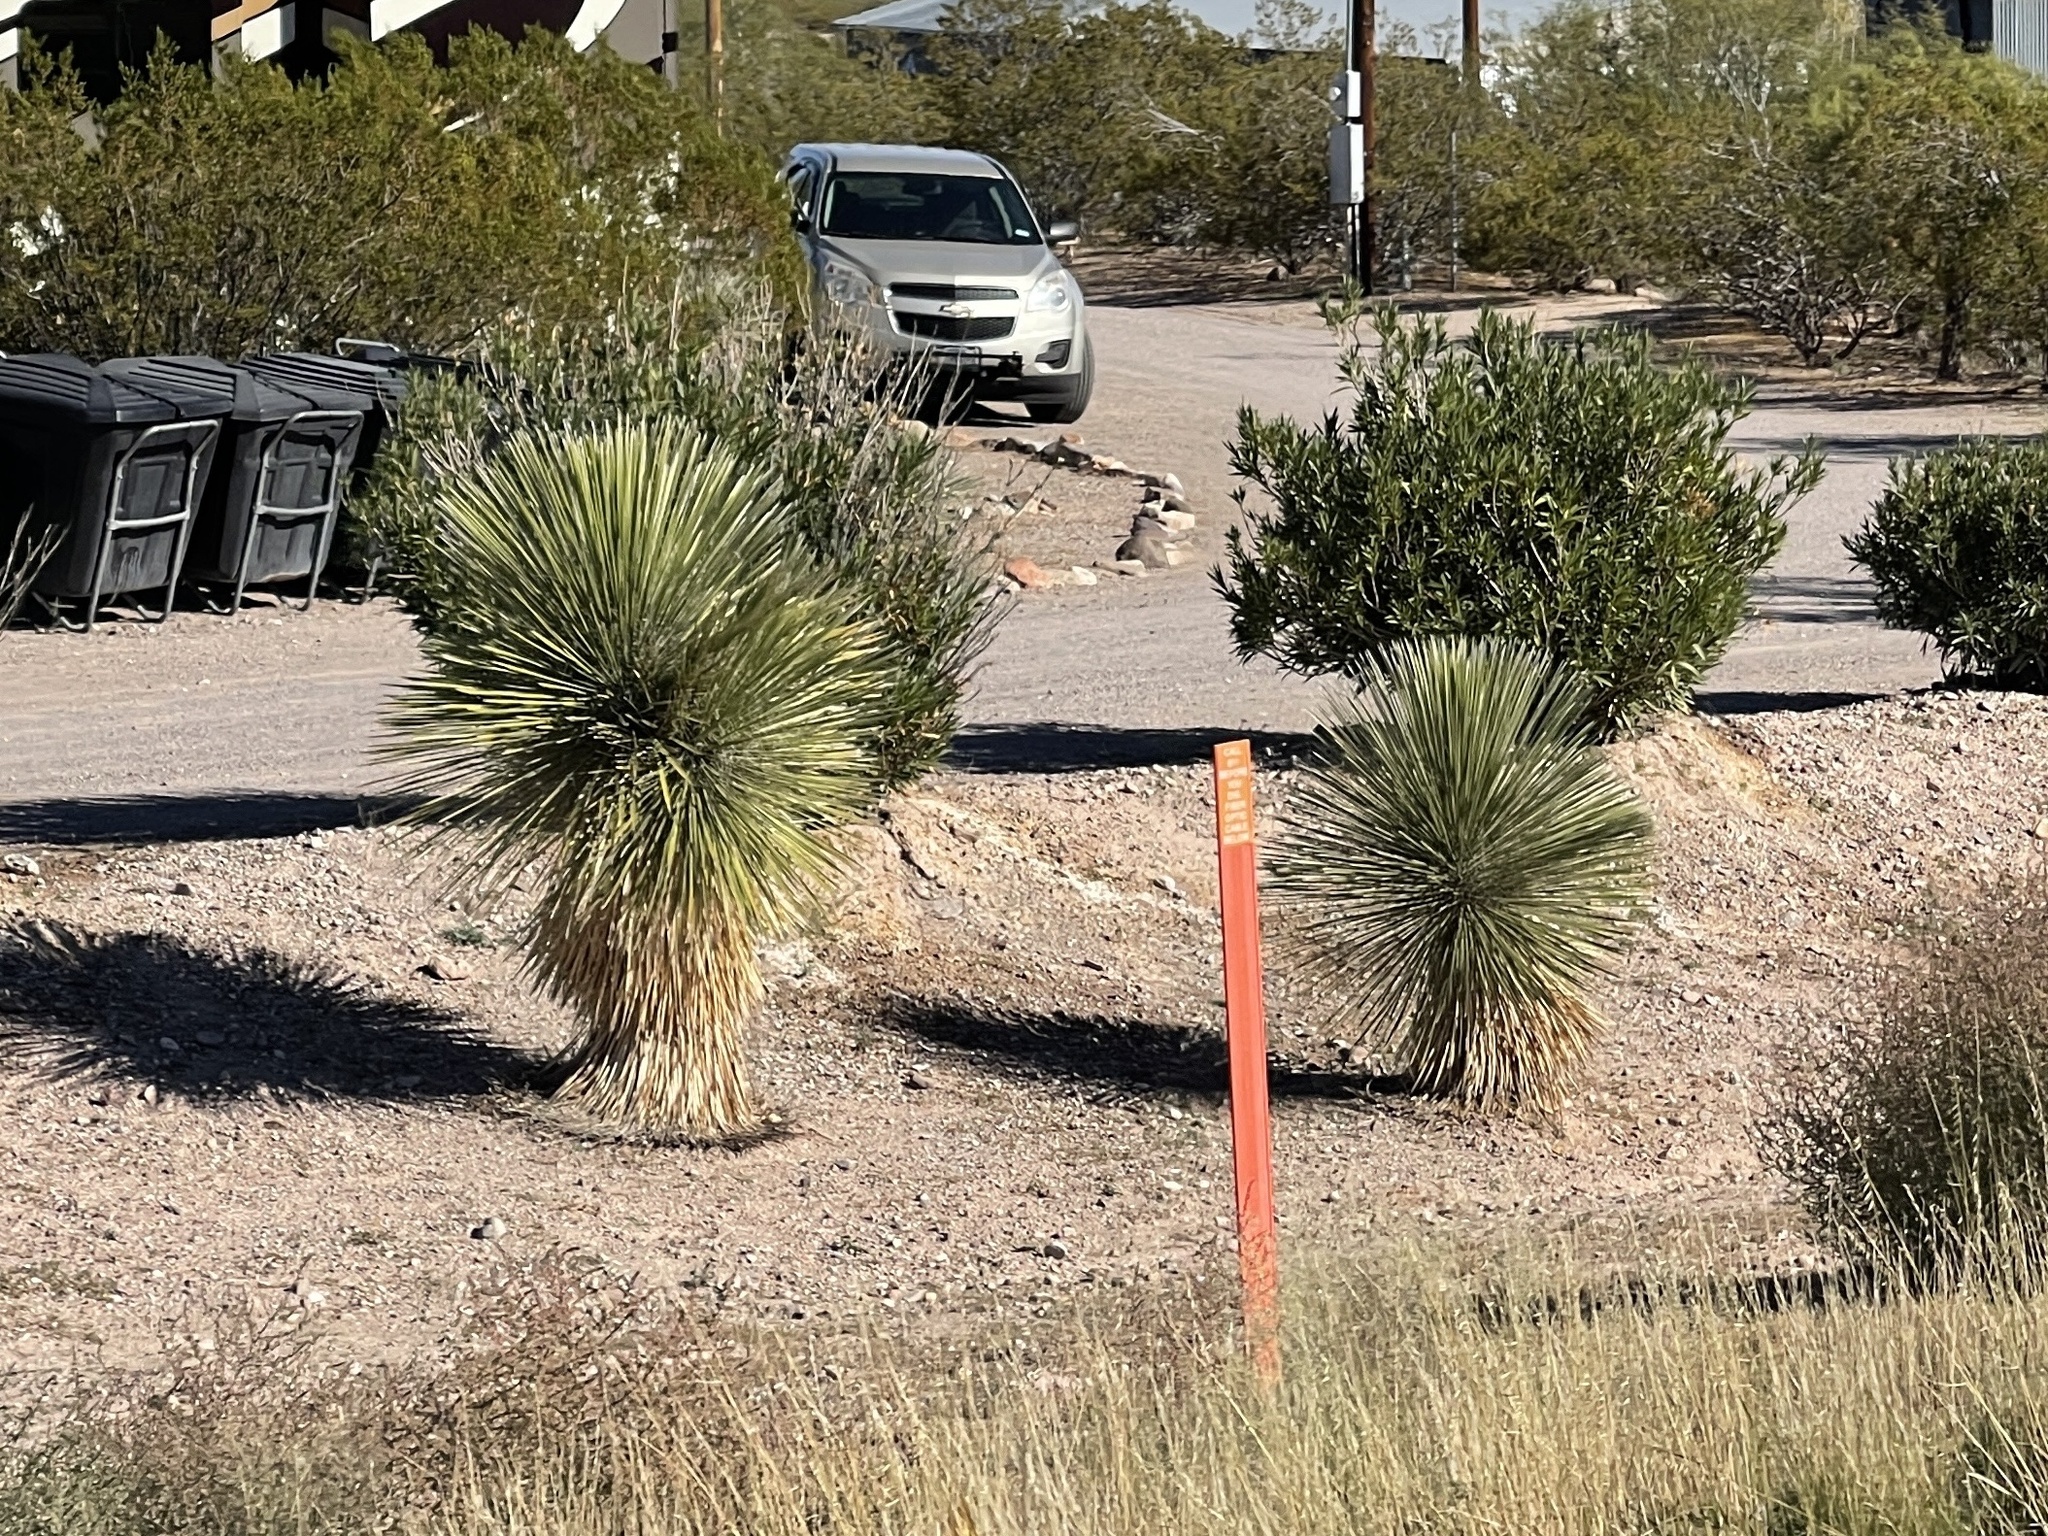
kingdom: Plantae
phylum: Tracheophyta
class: Liliopsida
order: Asparagales
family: Asparagaceae
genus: Yucca
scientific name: Yucca elata
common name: Palmella
